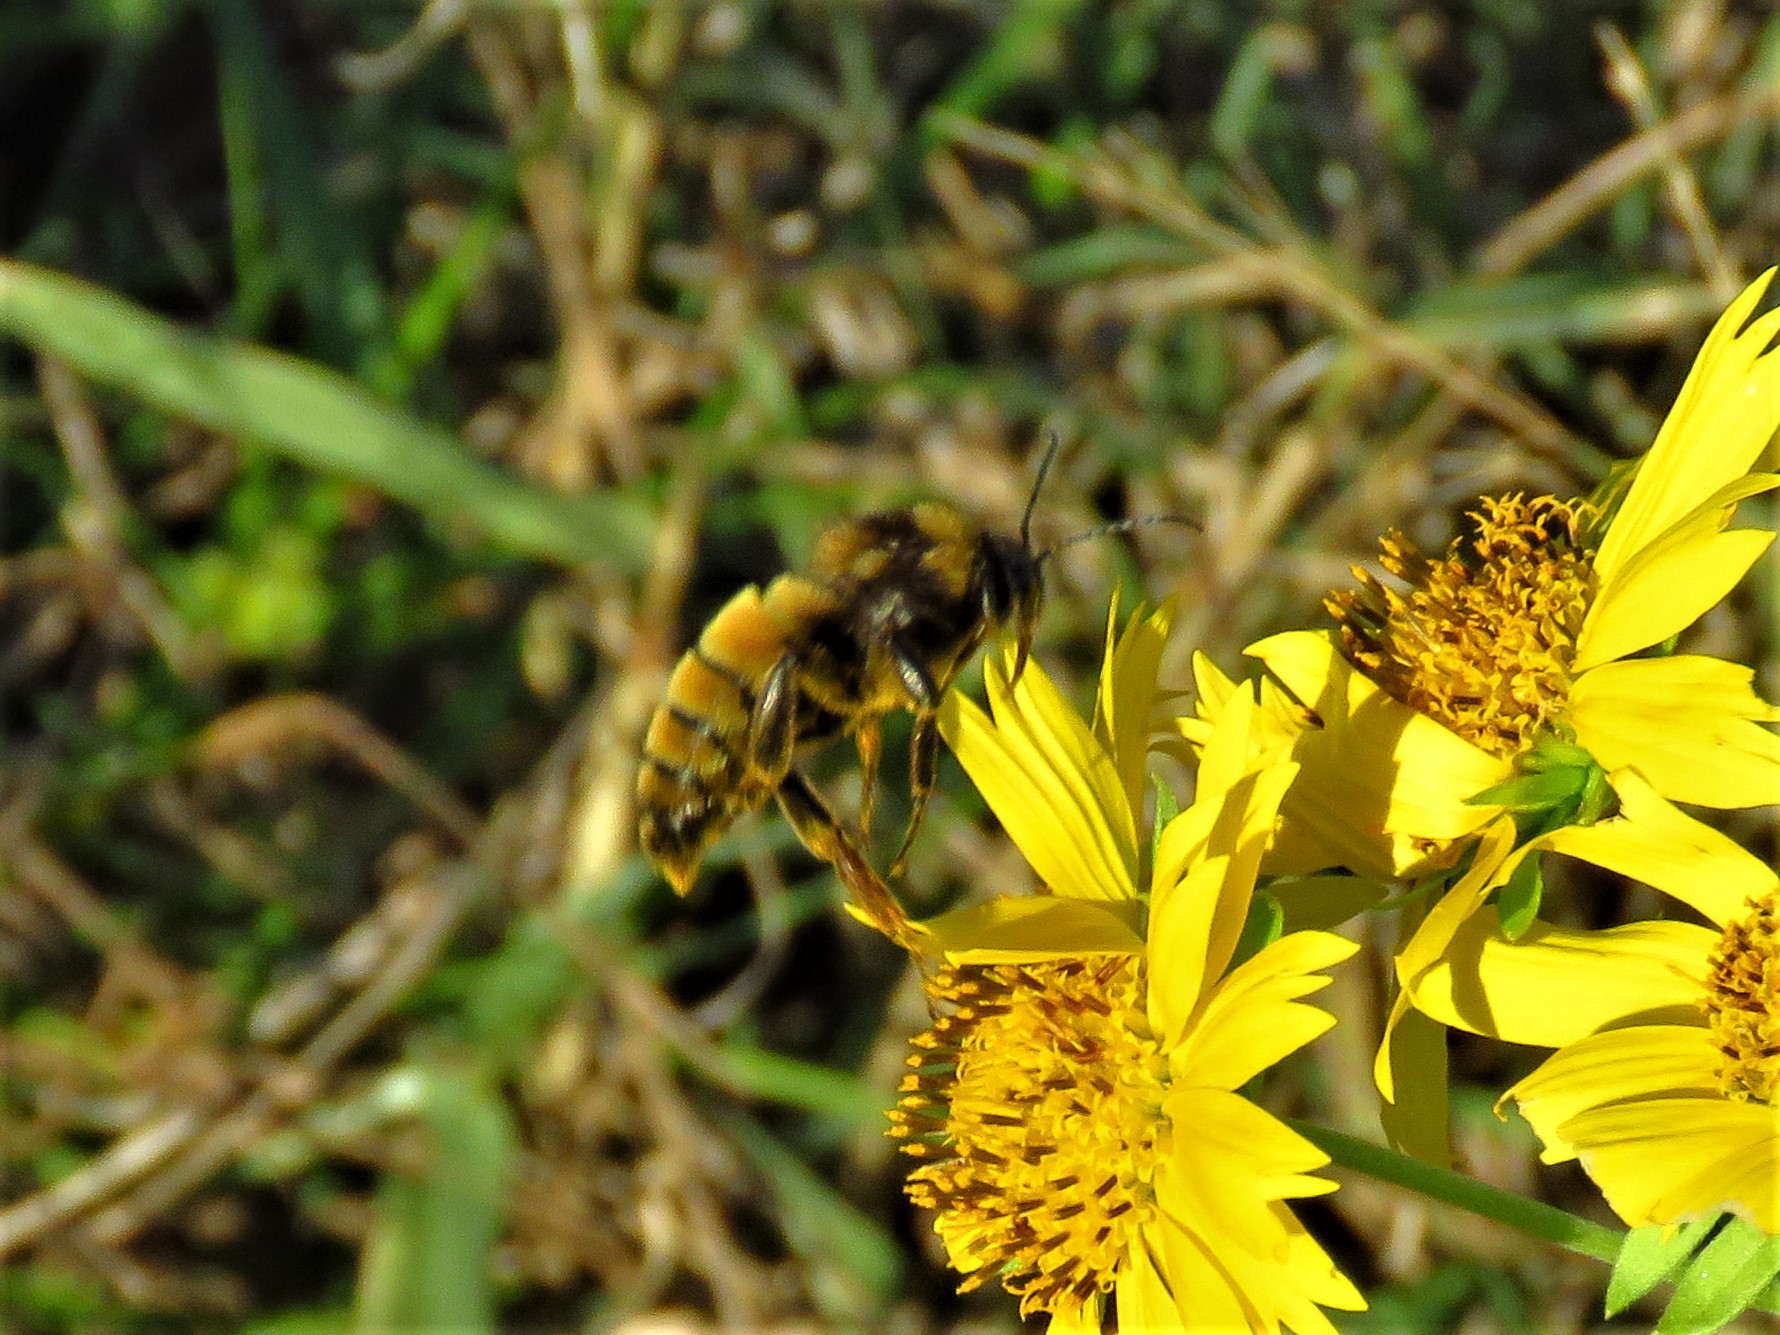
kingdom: Animalia
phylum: Arthropoda
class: Insecta
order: Hymenoptera
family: Apidae
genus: Bombus
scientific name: Bombus pensylvanicus
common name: Bumble bee
